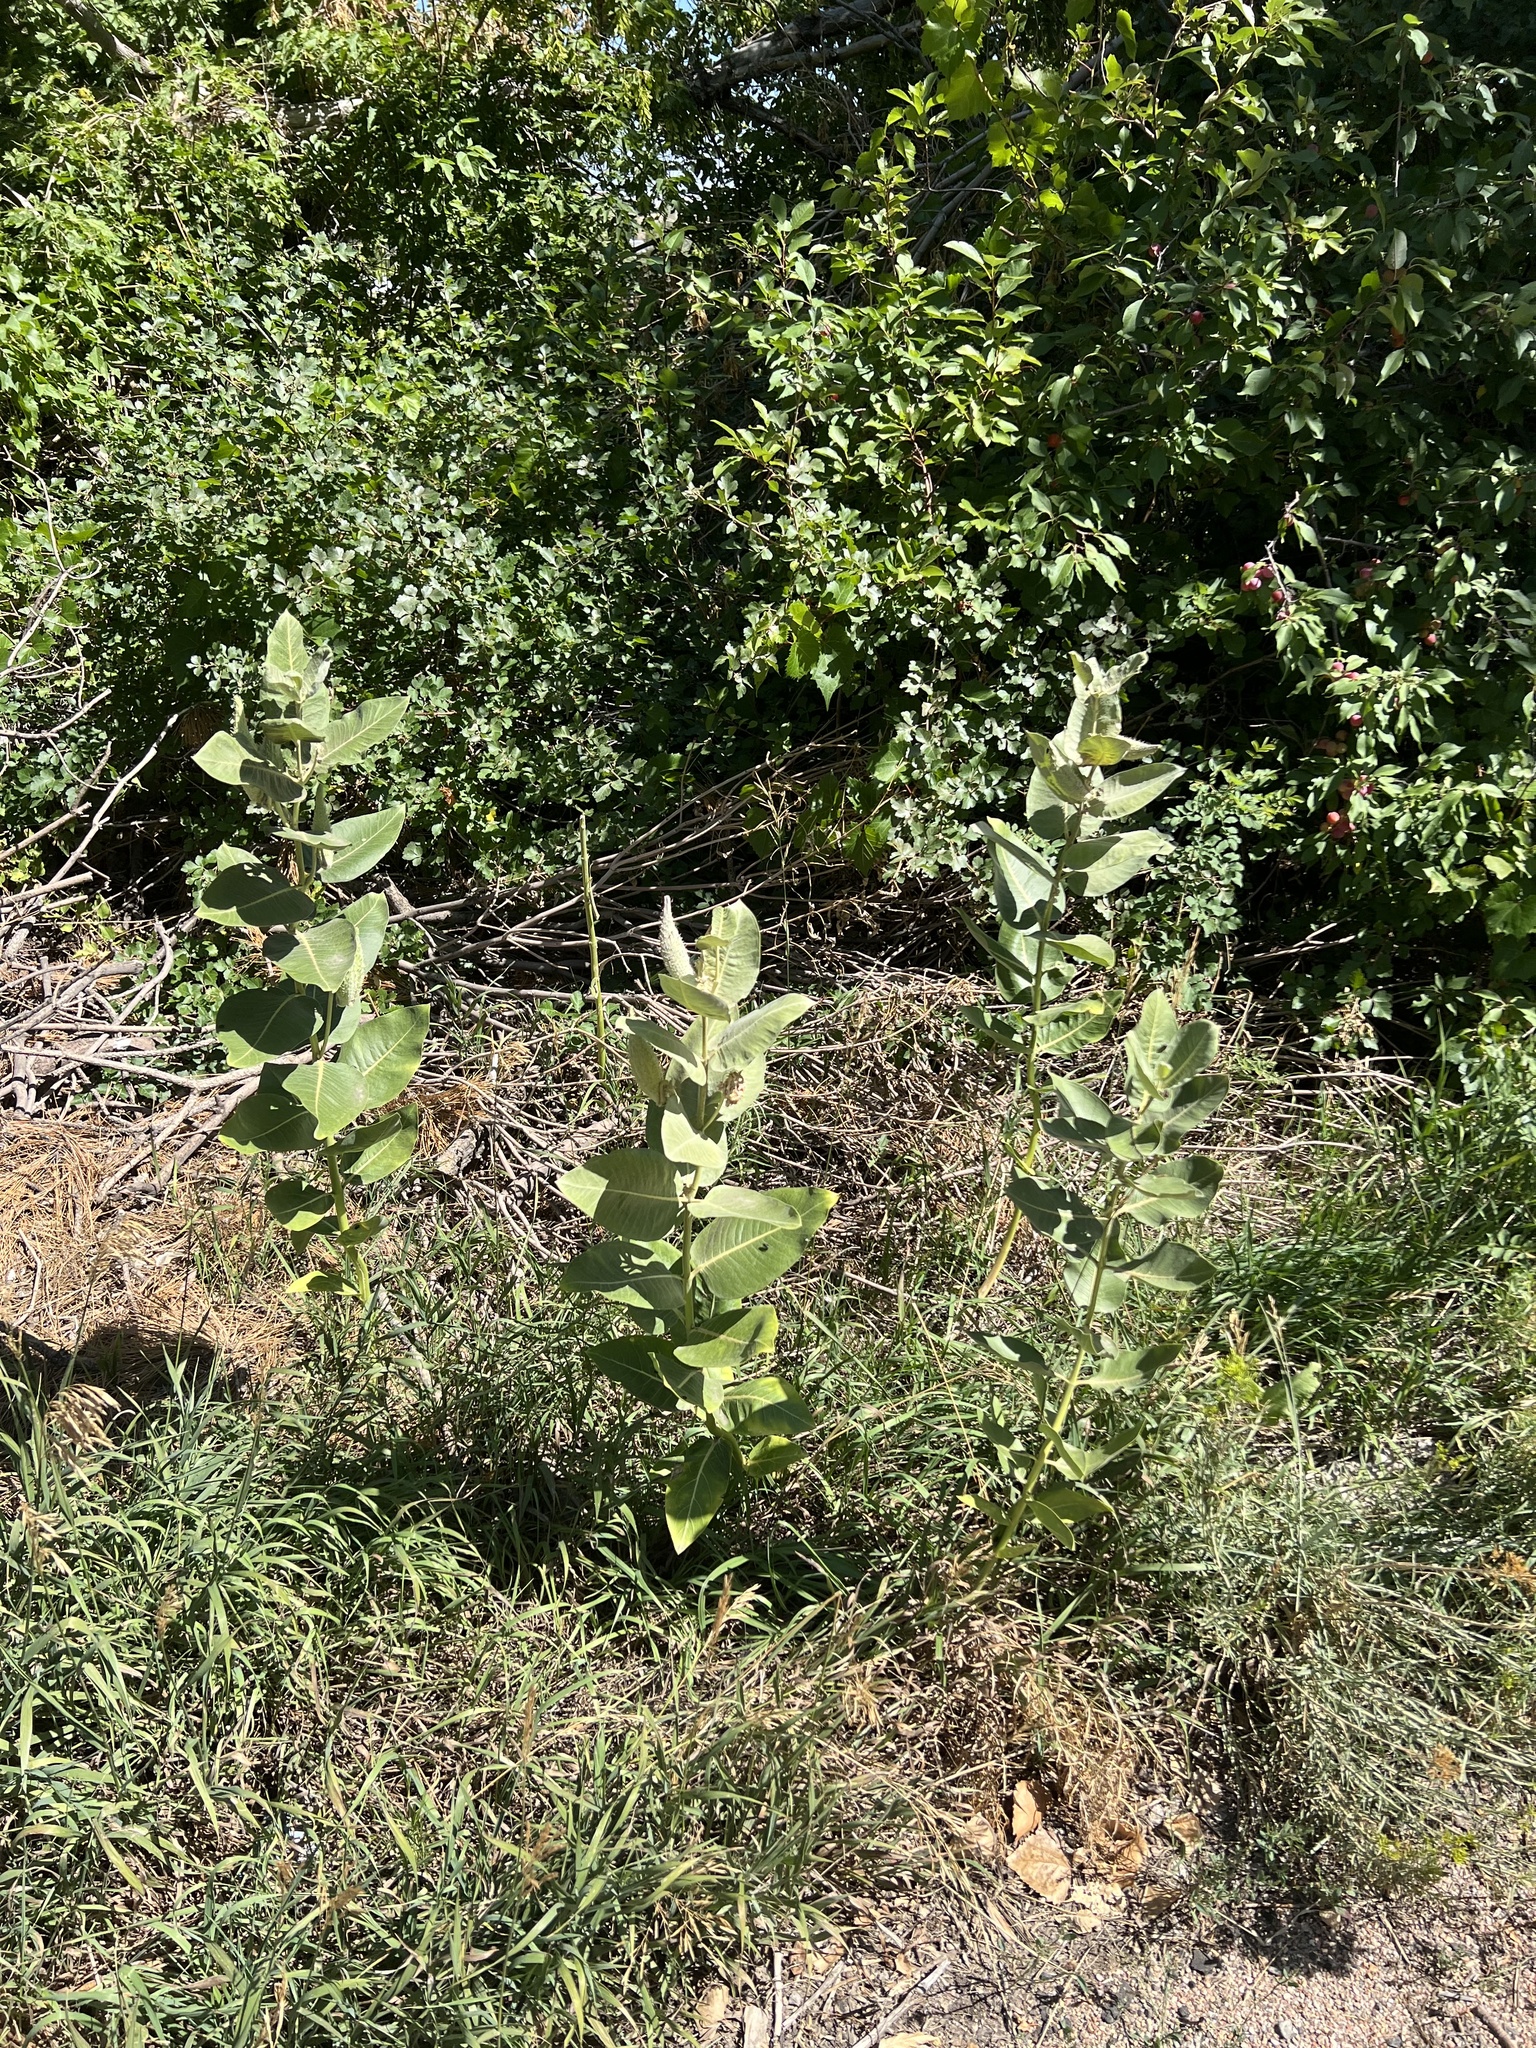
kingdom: Plantae
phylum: Tracheophyta
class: Magnoliopsida
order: Gentianales
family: Apocynaceae
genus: Asclepias
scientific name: Asclepias speciosa
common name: Showy milkweed
